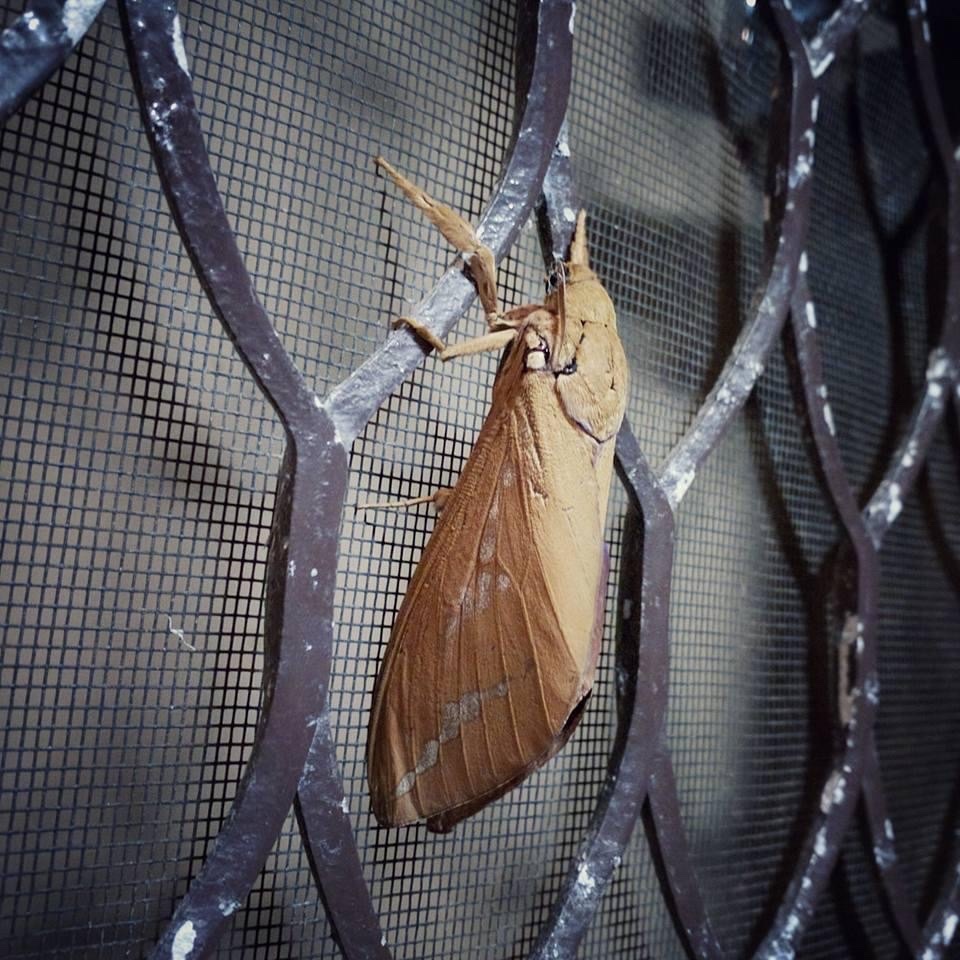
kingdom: Animalia
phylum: Arthropoda
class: Insecta
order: Lepidoptera
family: Hepialidae
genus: Abantiades
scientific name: Abantiades hyalinatus
